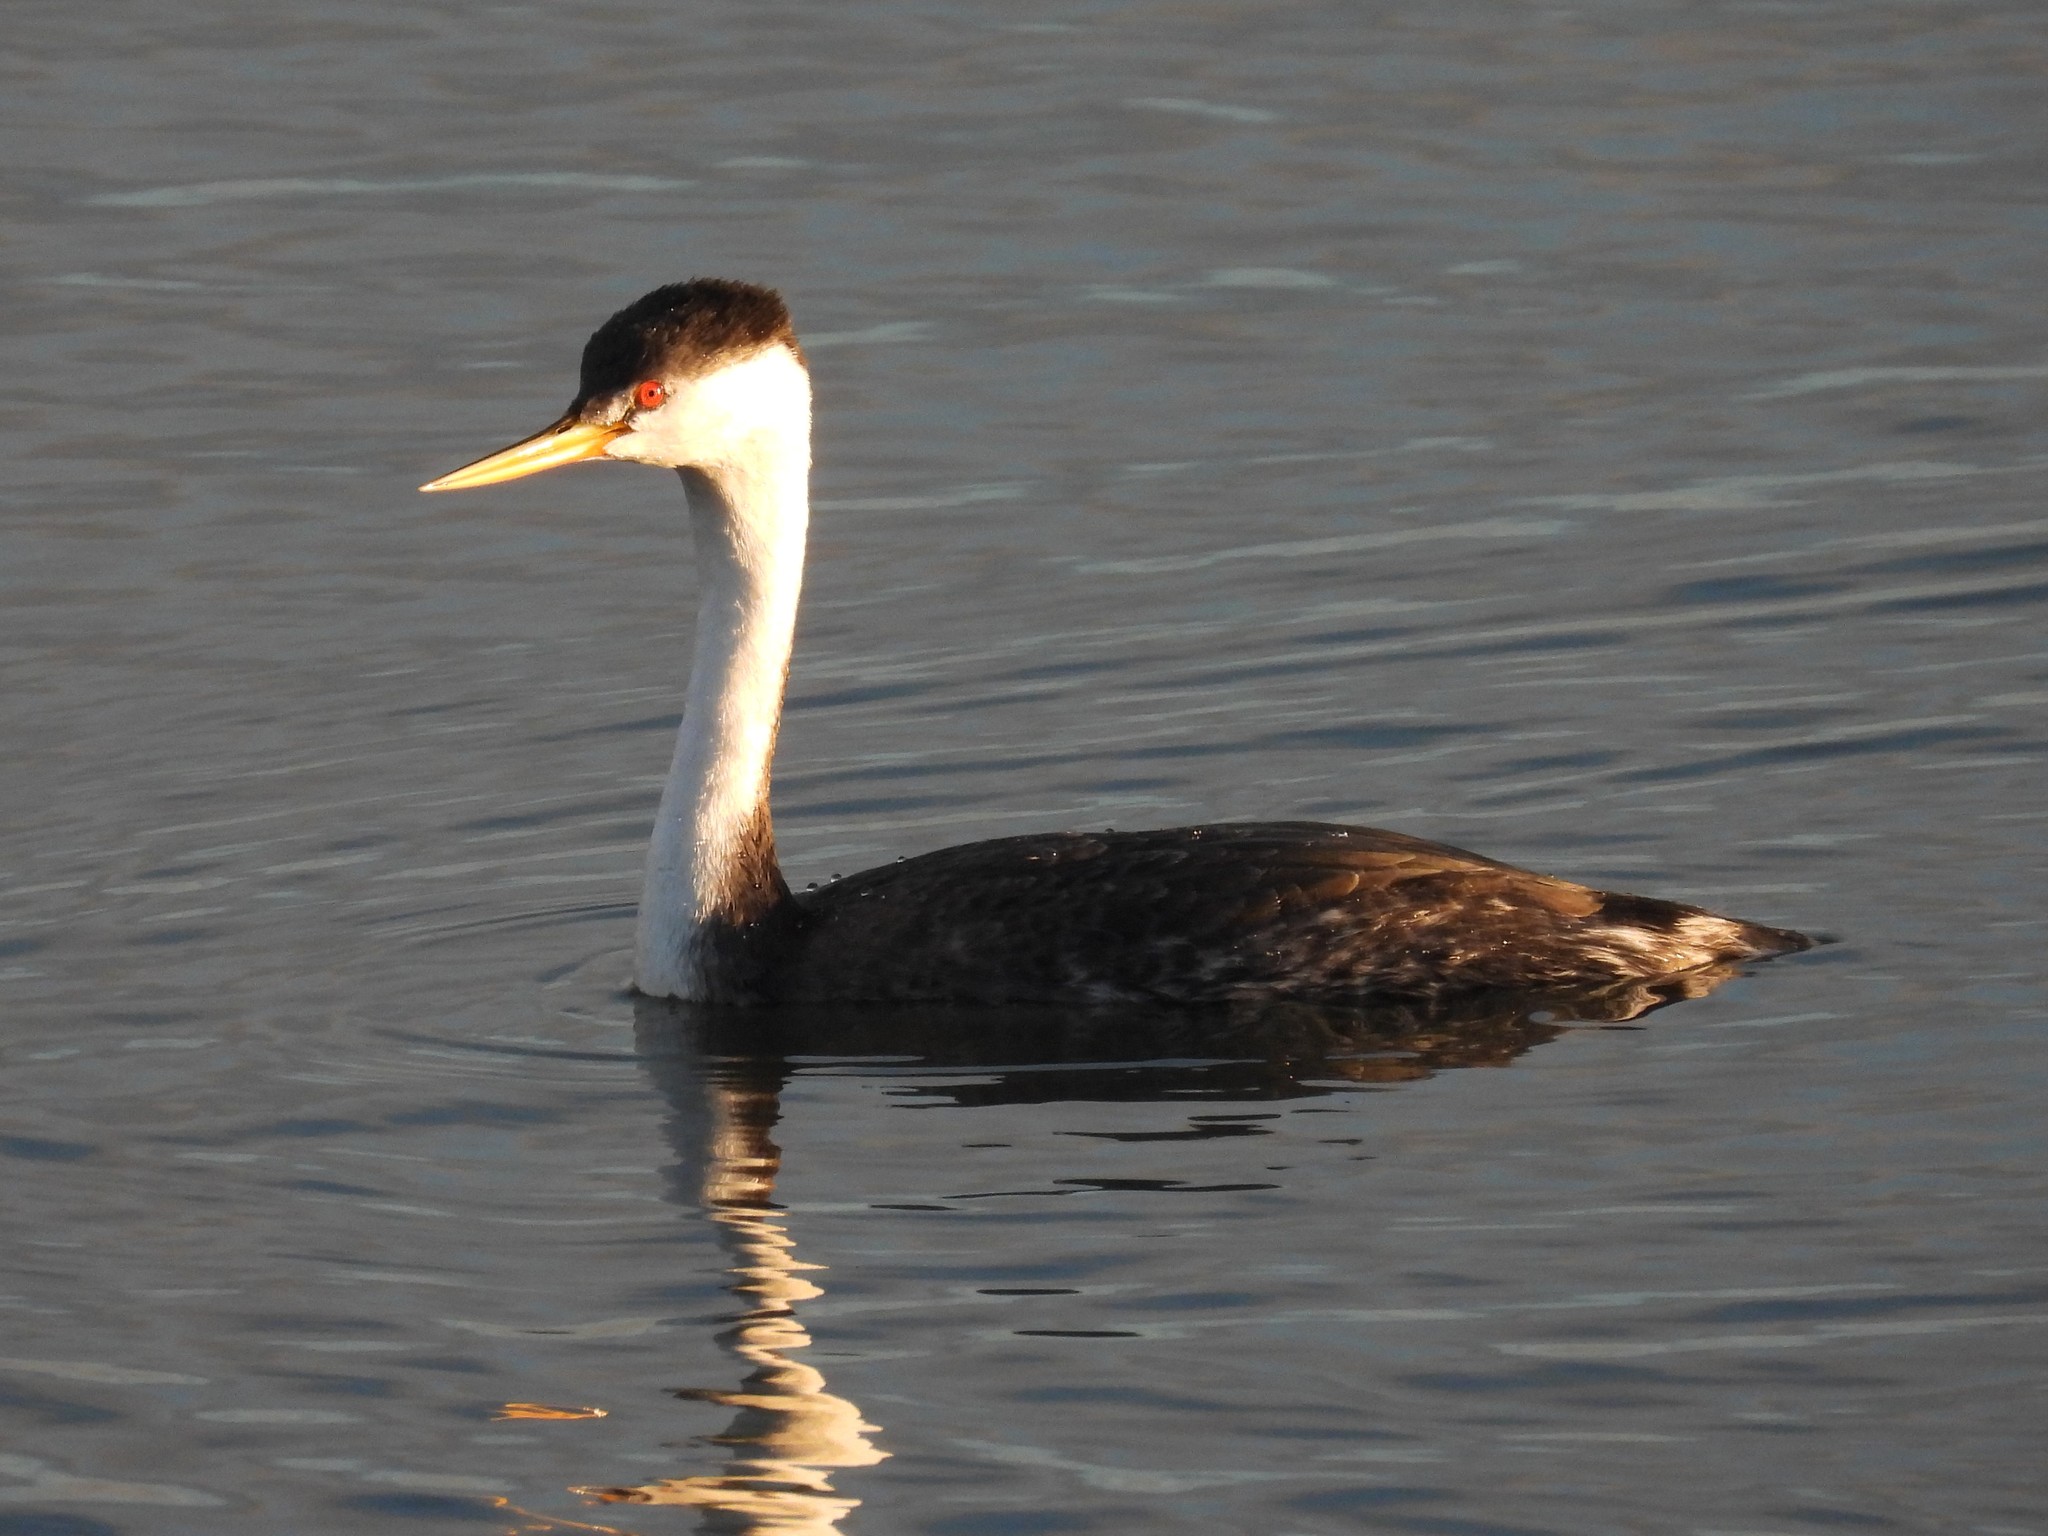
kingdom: Animalia
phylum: Chordata
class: Aves
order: Podicipediformes
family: Podicipedidae
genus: Aechmophorus
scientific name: Aechmophorus clarkii
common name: Clark's grebe
